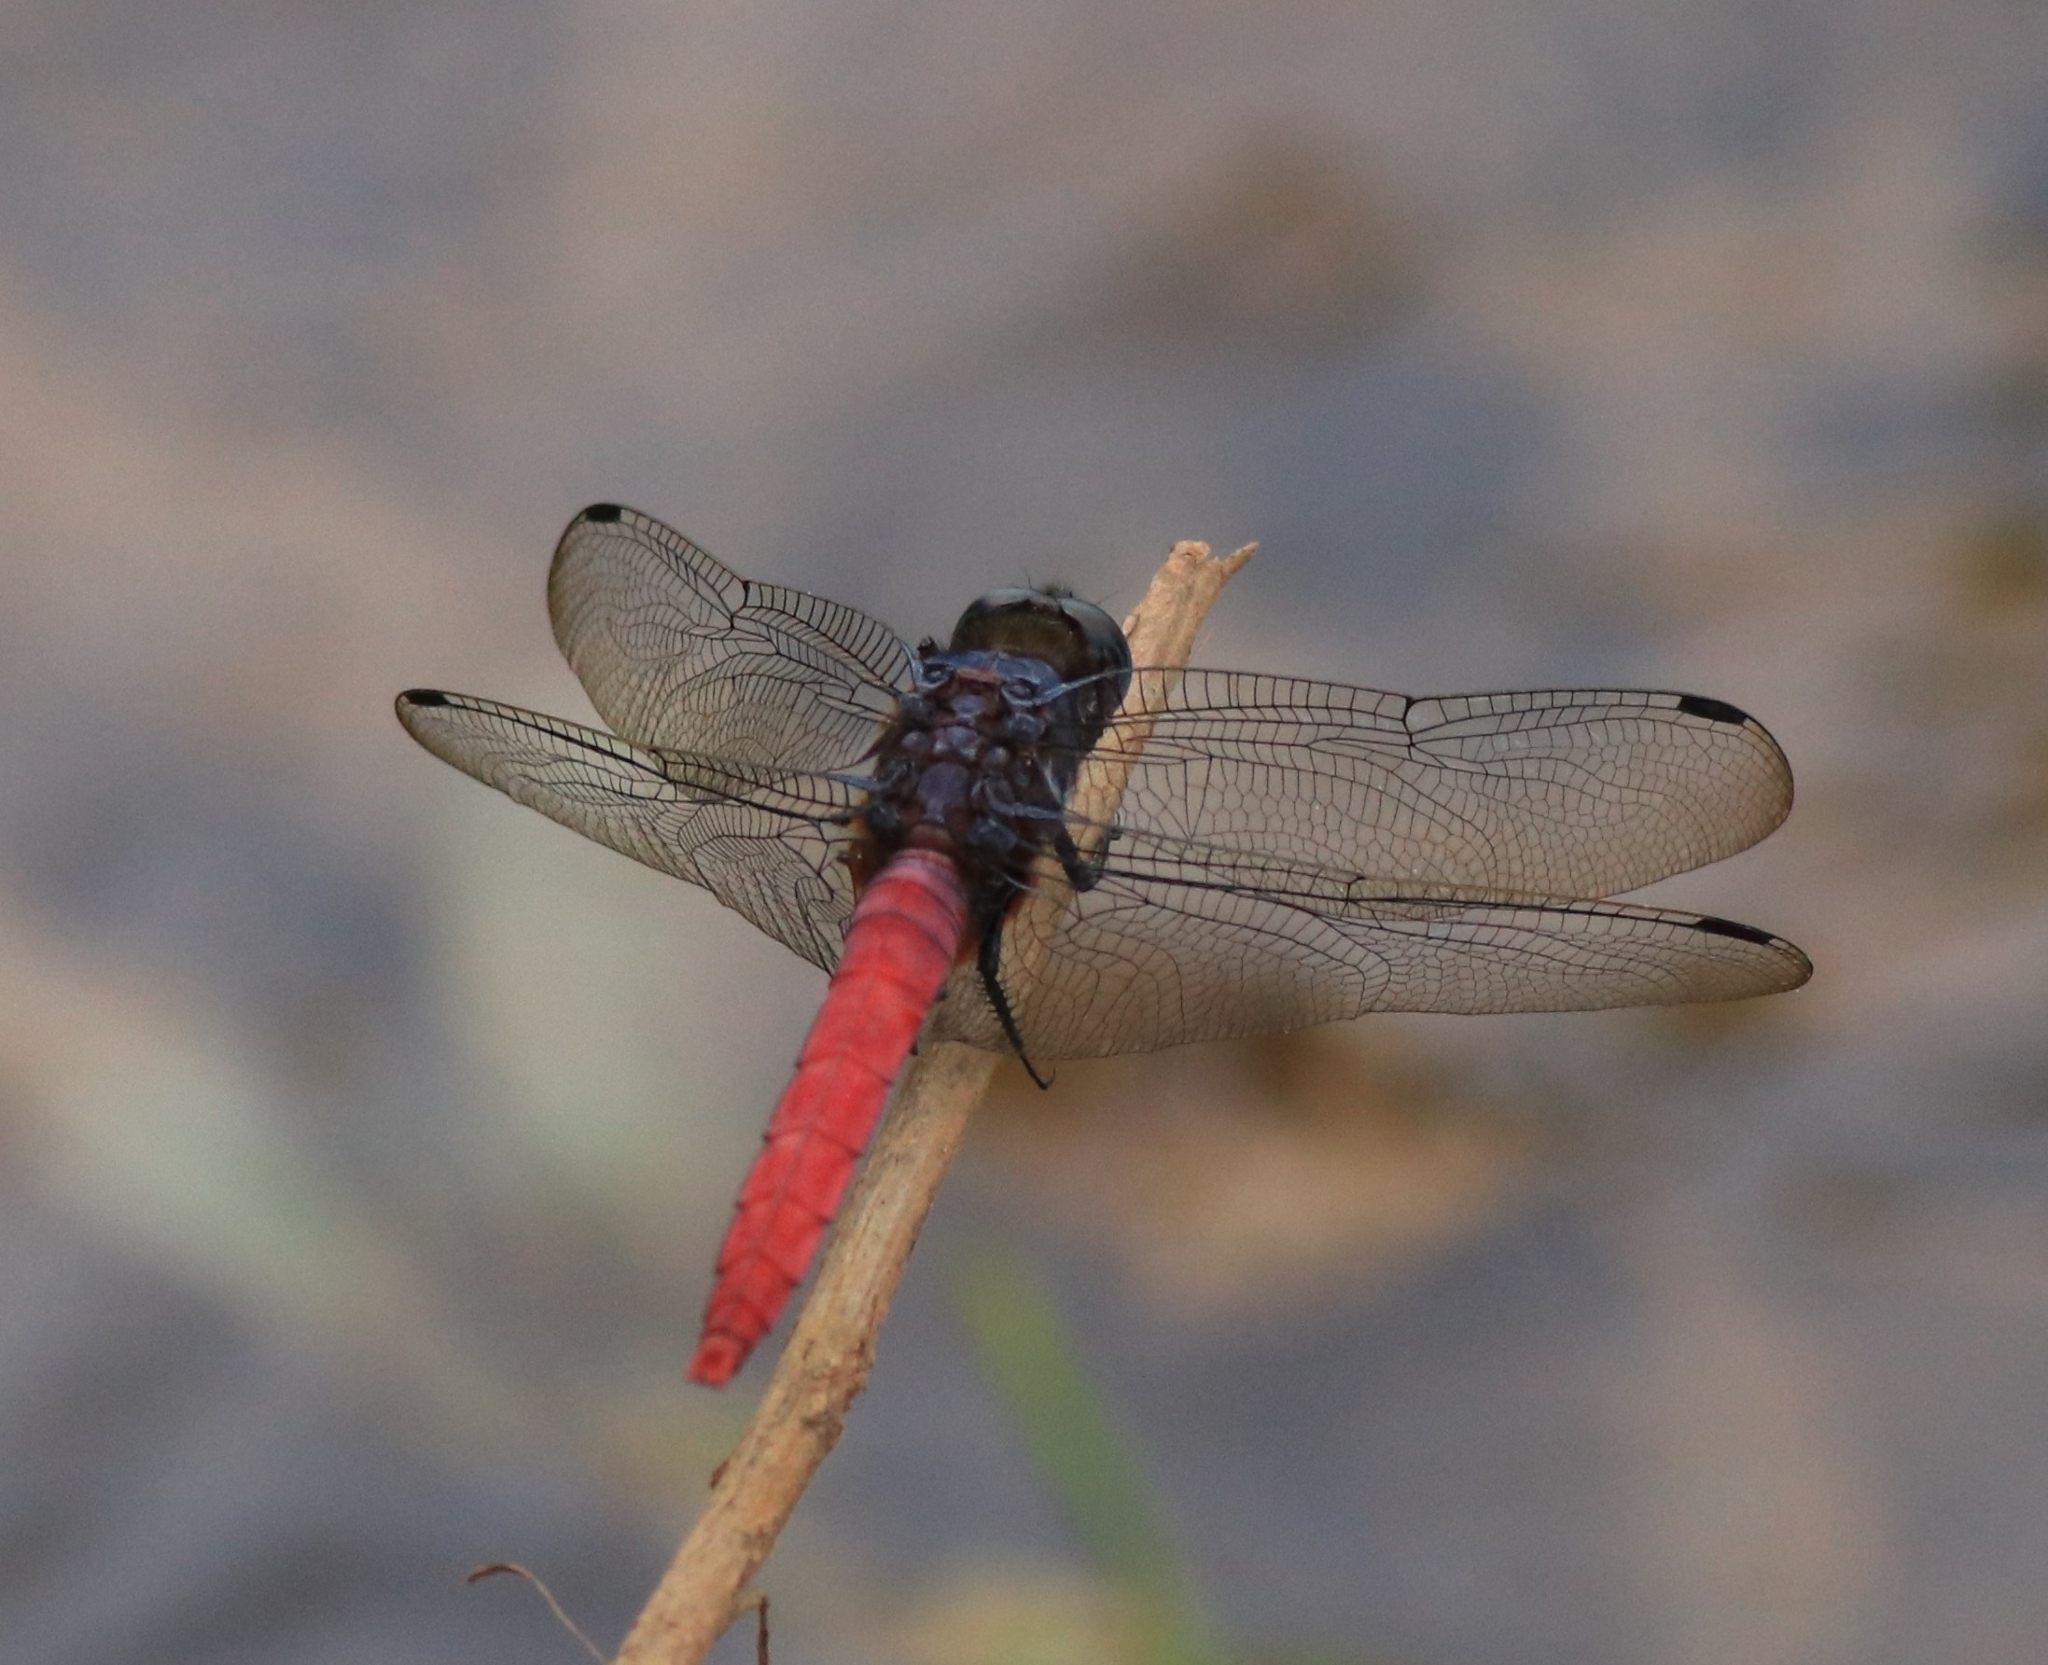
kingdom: Animalia
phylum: Arthropoda
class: Insecta
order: Odonata
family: Libellulidae
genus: Orthetrum
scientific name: Orthetrum pruinosum
